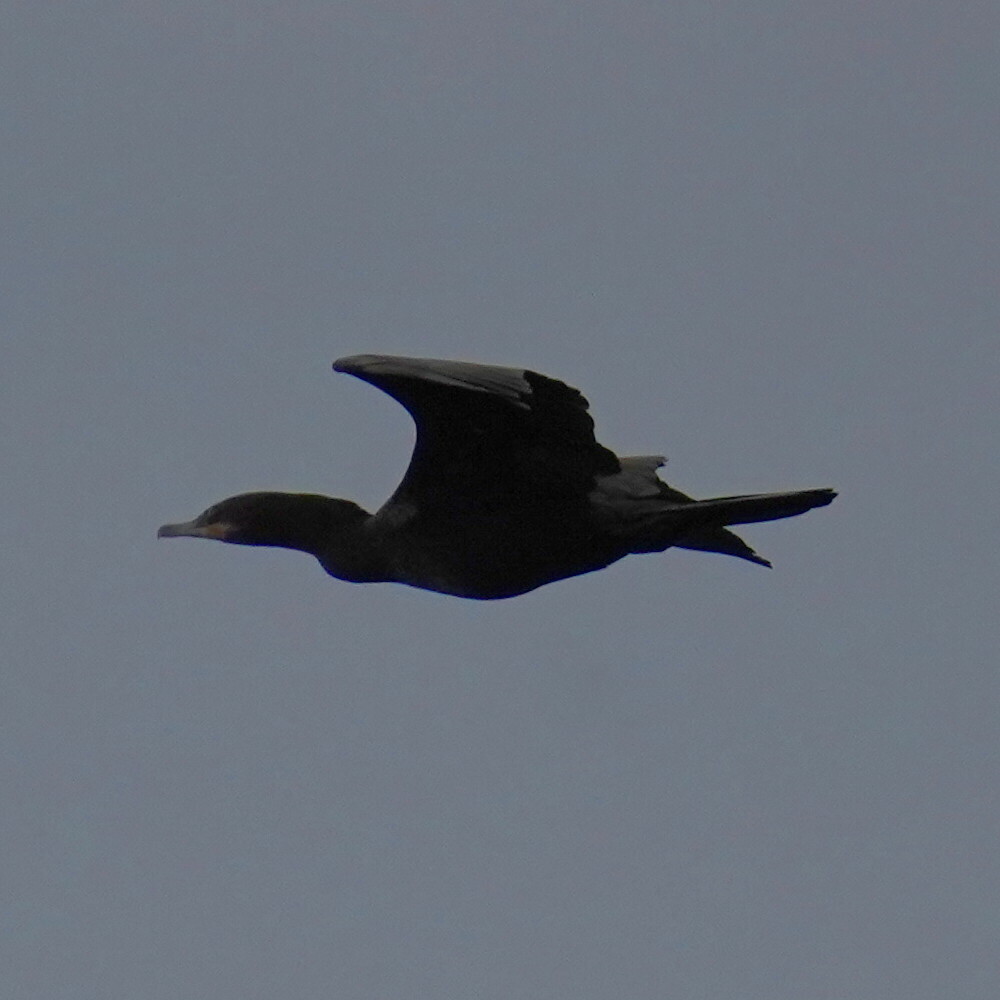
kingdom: Animalia
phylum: Chordata
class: Aves
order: Suliformes
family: Phalacrocoracidae
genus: Phalacrocorax
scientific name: Phalacrocorax brasilianus
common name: Neotropic cormorant
